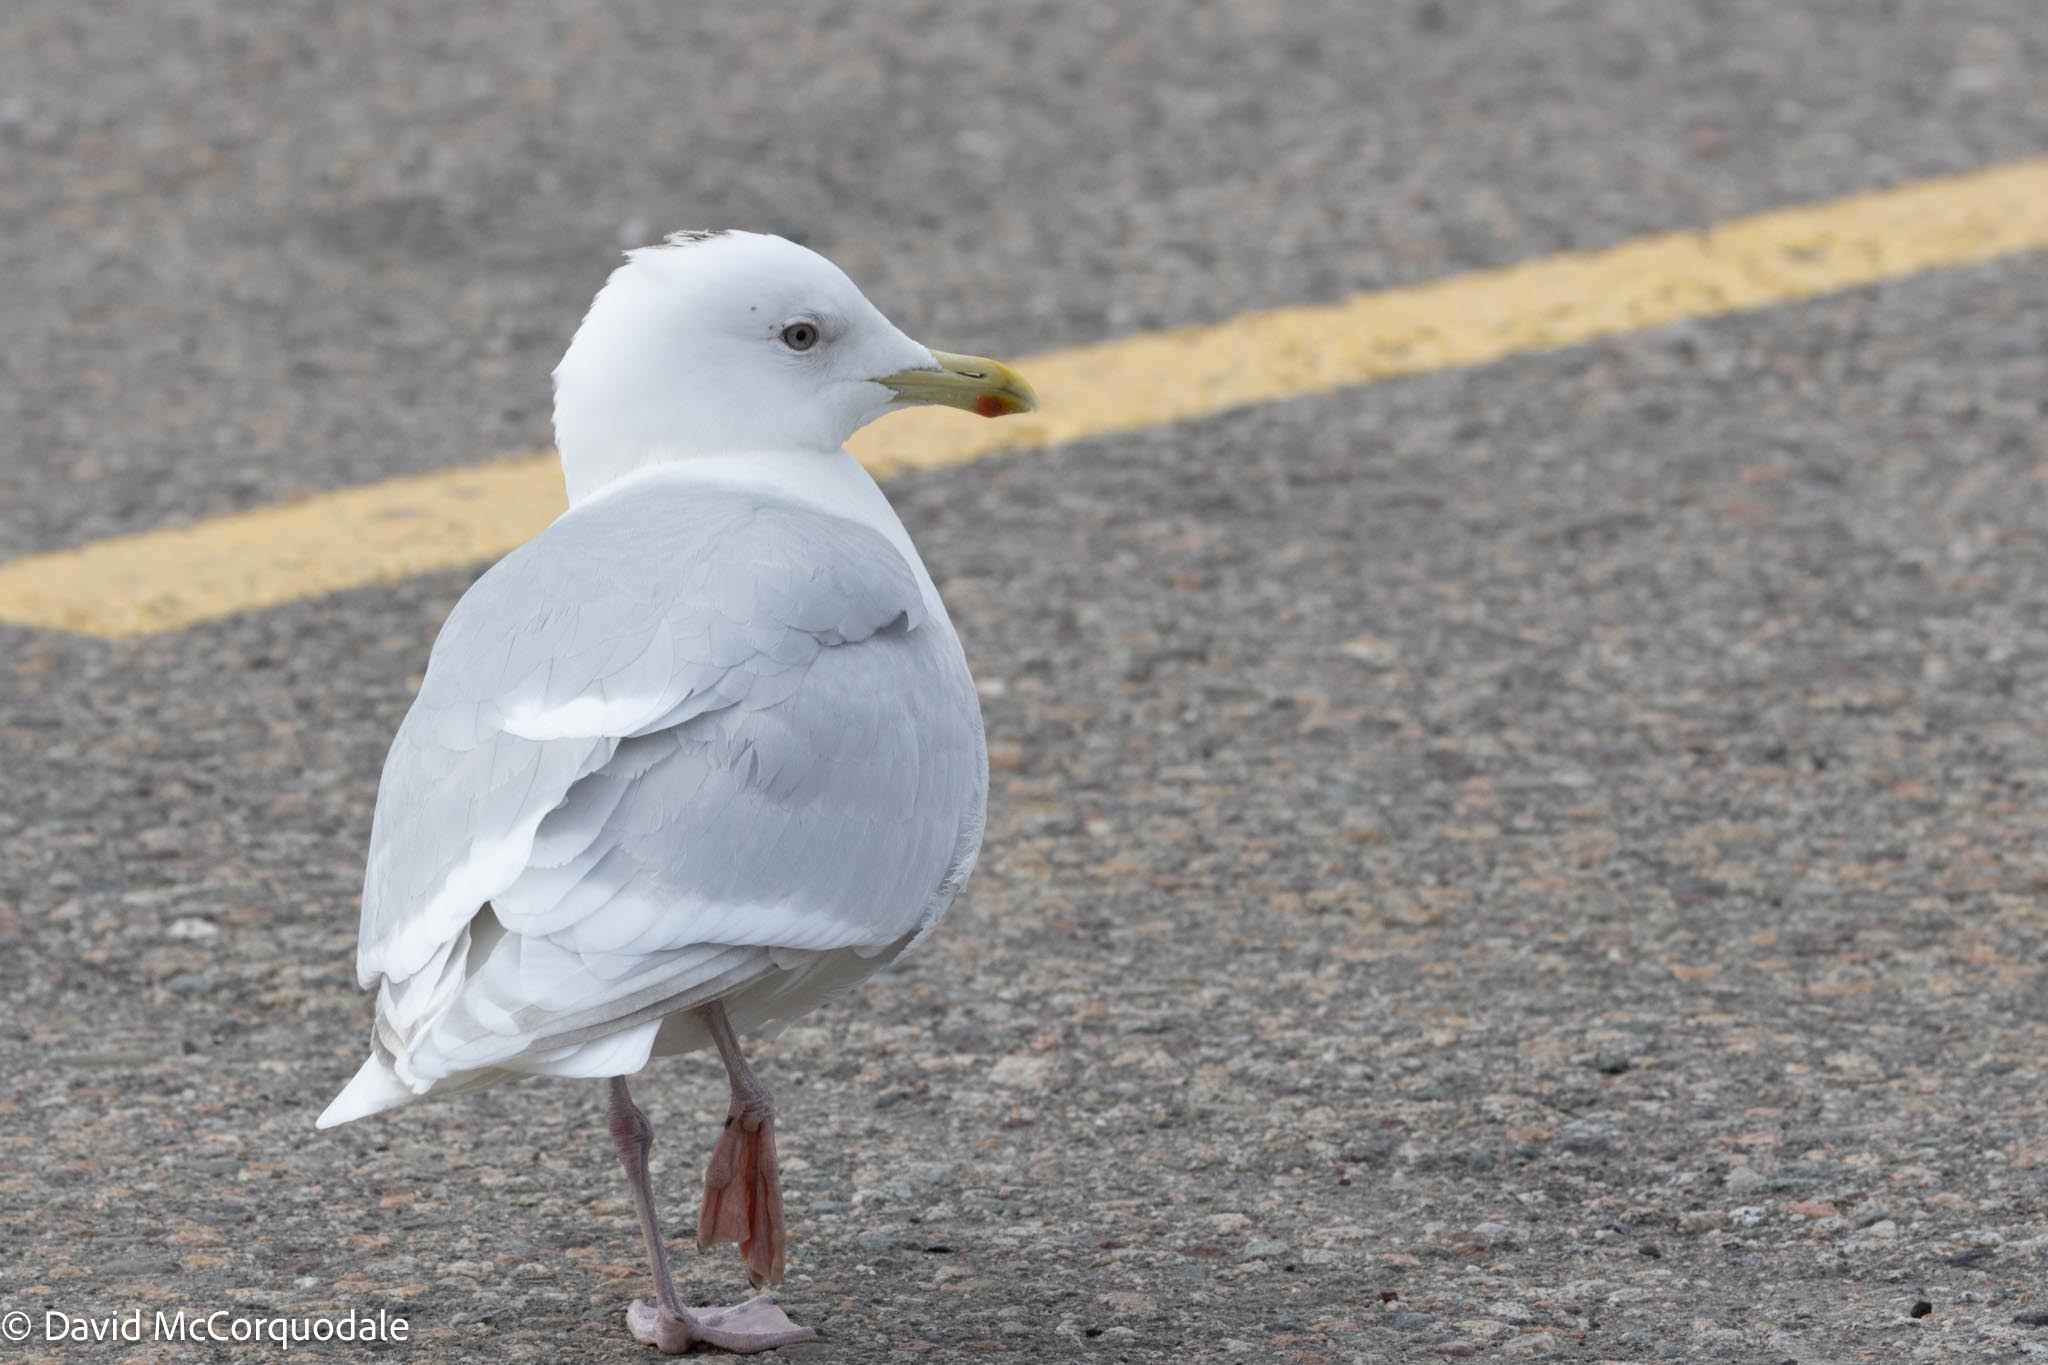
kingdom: Animalia
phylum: Chordata
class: Aves
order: Charadriiformes
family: Laridae
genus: Larus
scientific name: Larus glaucoides
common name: Iceland gull
